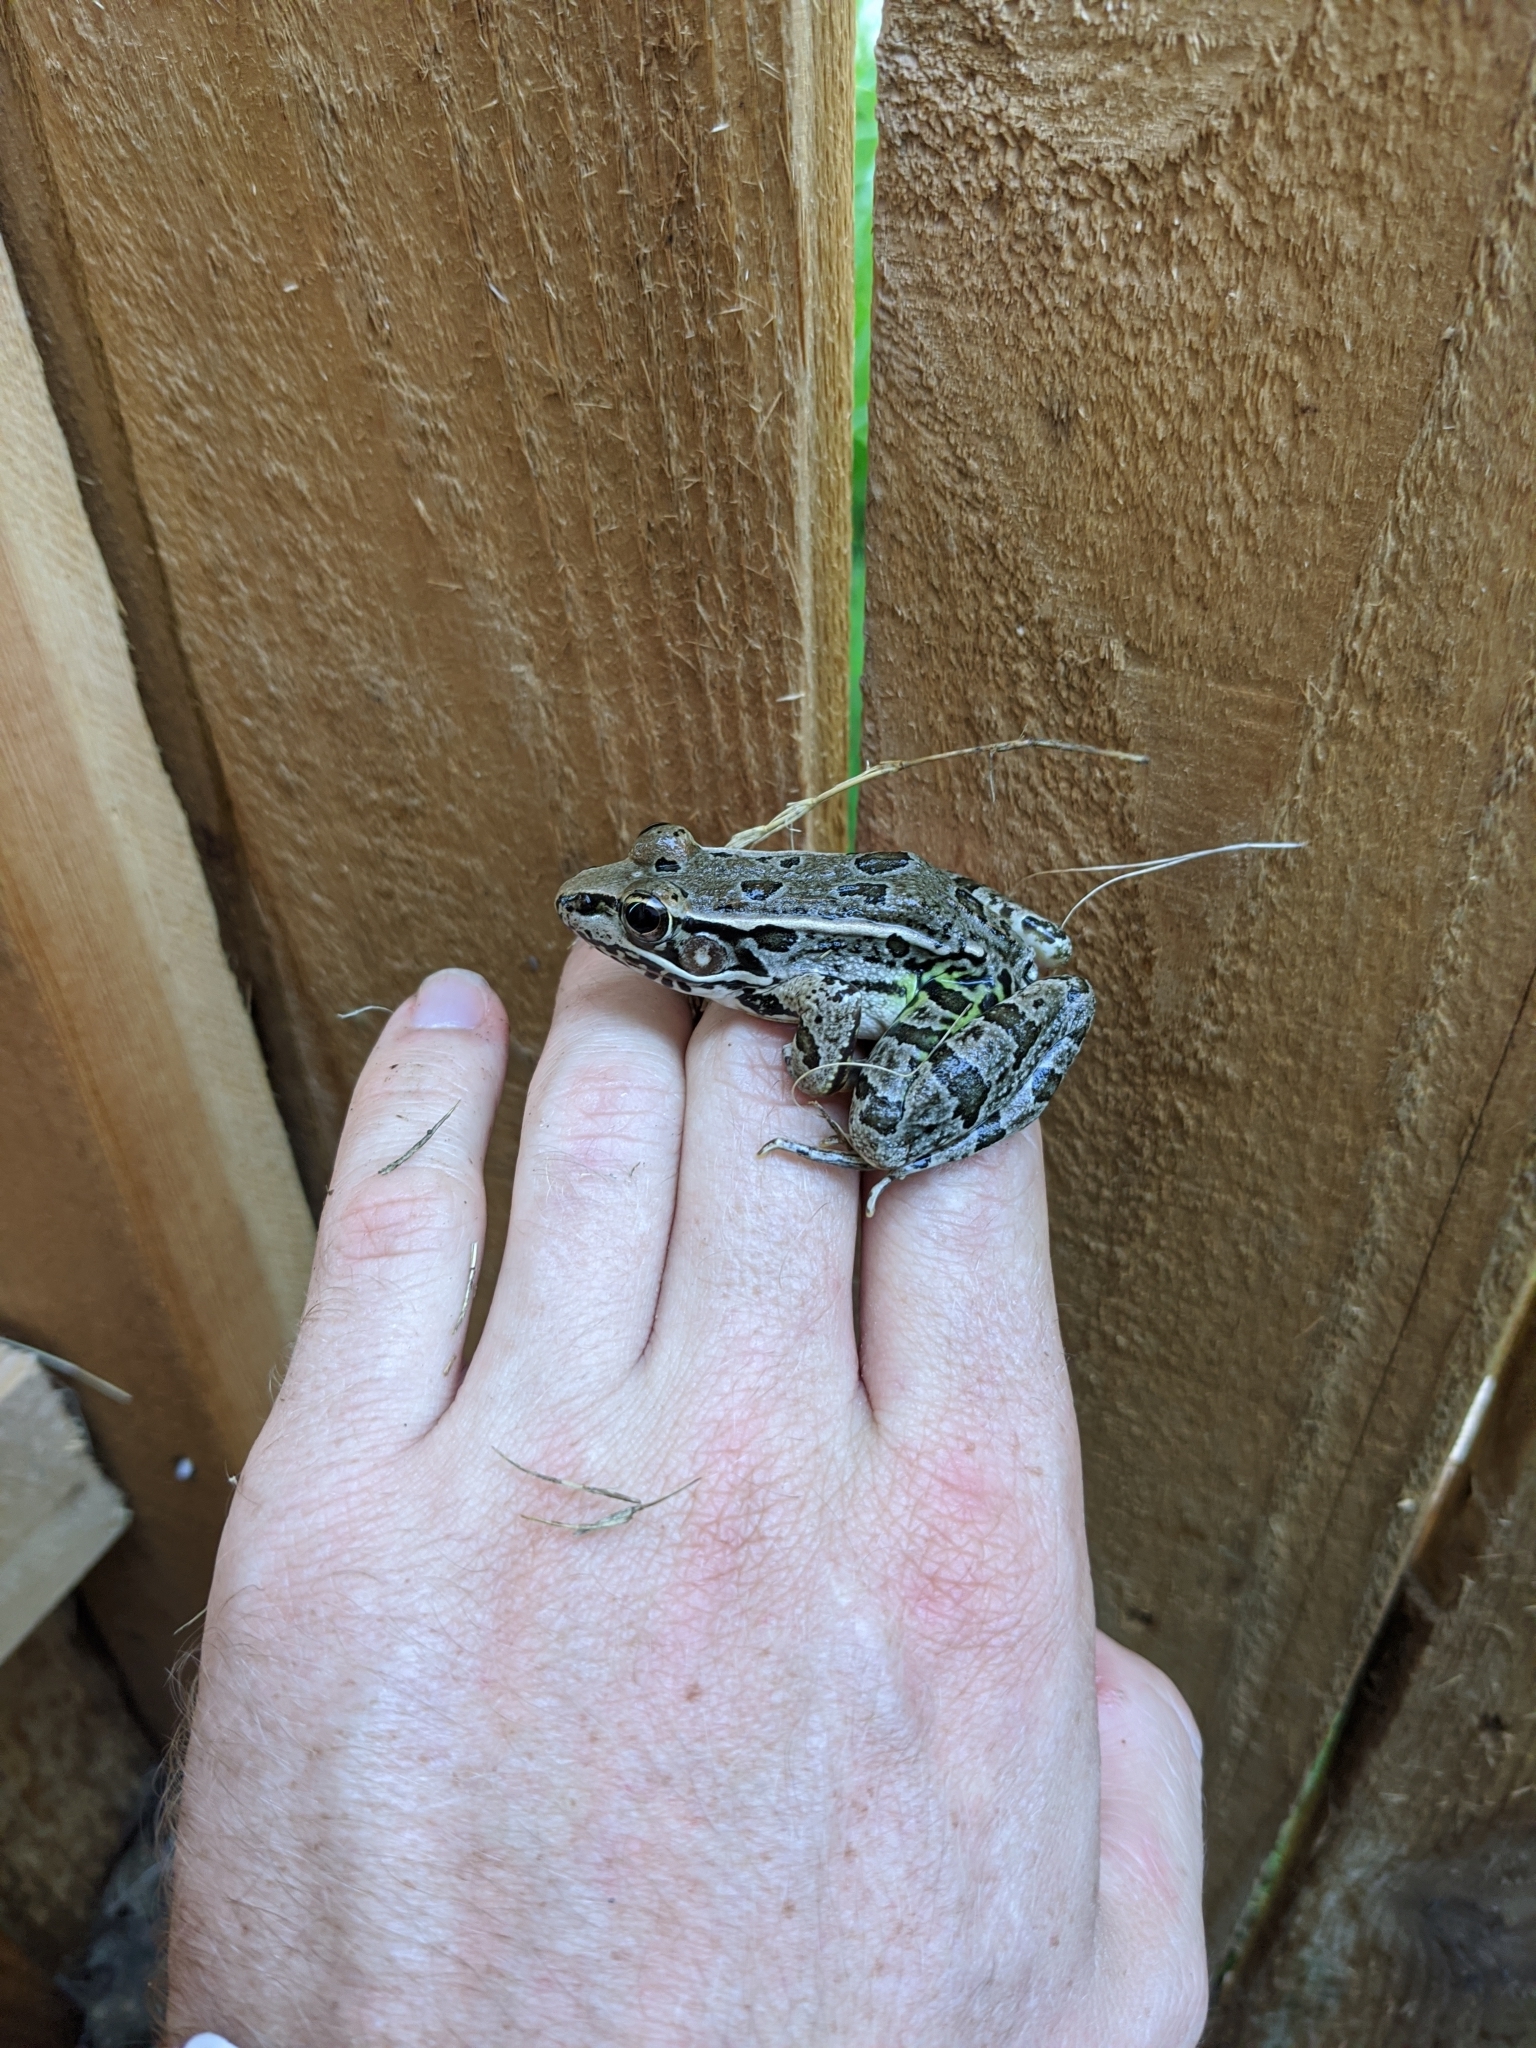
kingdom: Animalia
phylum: Chordata
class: Amphibia
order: Anura
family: Ranidae
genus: Lithobates
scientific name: Lithobates berlandieri
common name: Rio grande leopard frog
